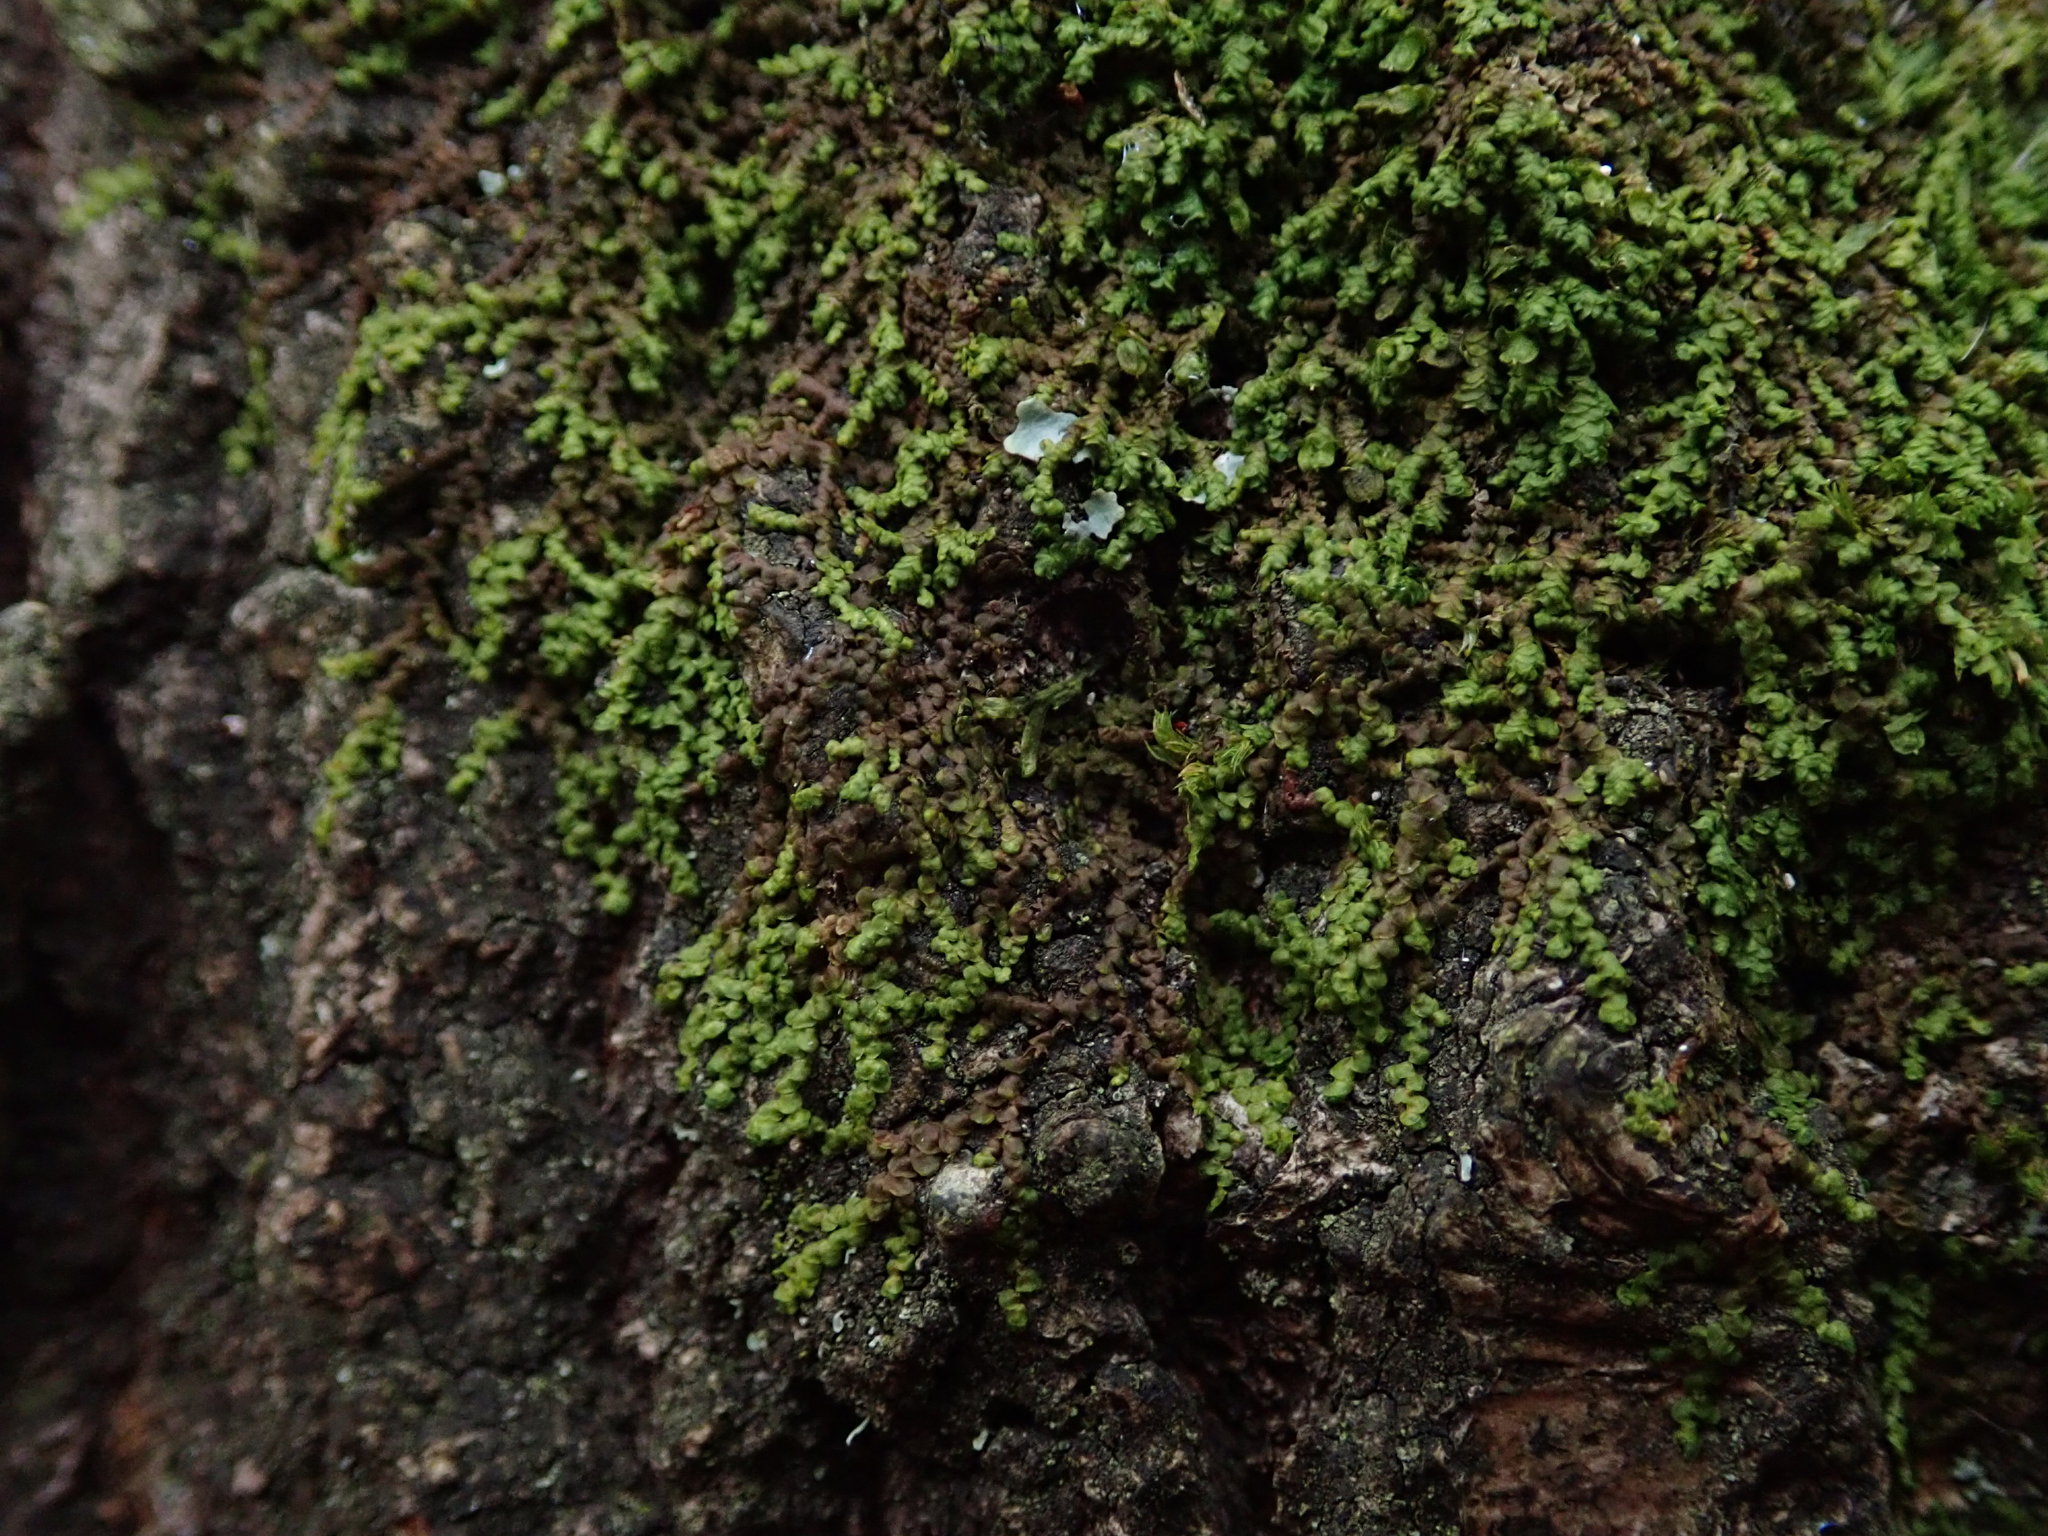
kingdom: Plantae
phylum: Marchantiophyta
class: Jungermanniopsida
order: Porellales
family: Frullaniaceae
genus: Frullania
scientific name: Frullania dilatata
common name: Dilated scalewort
